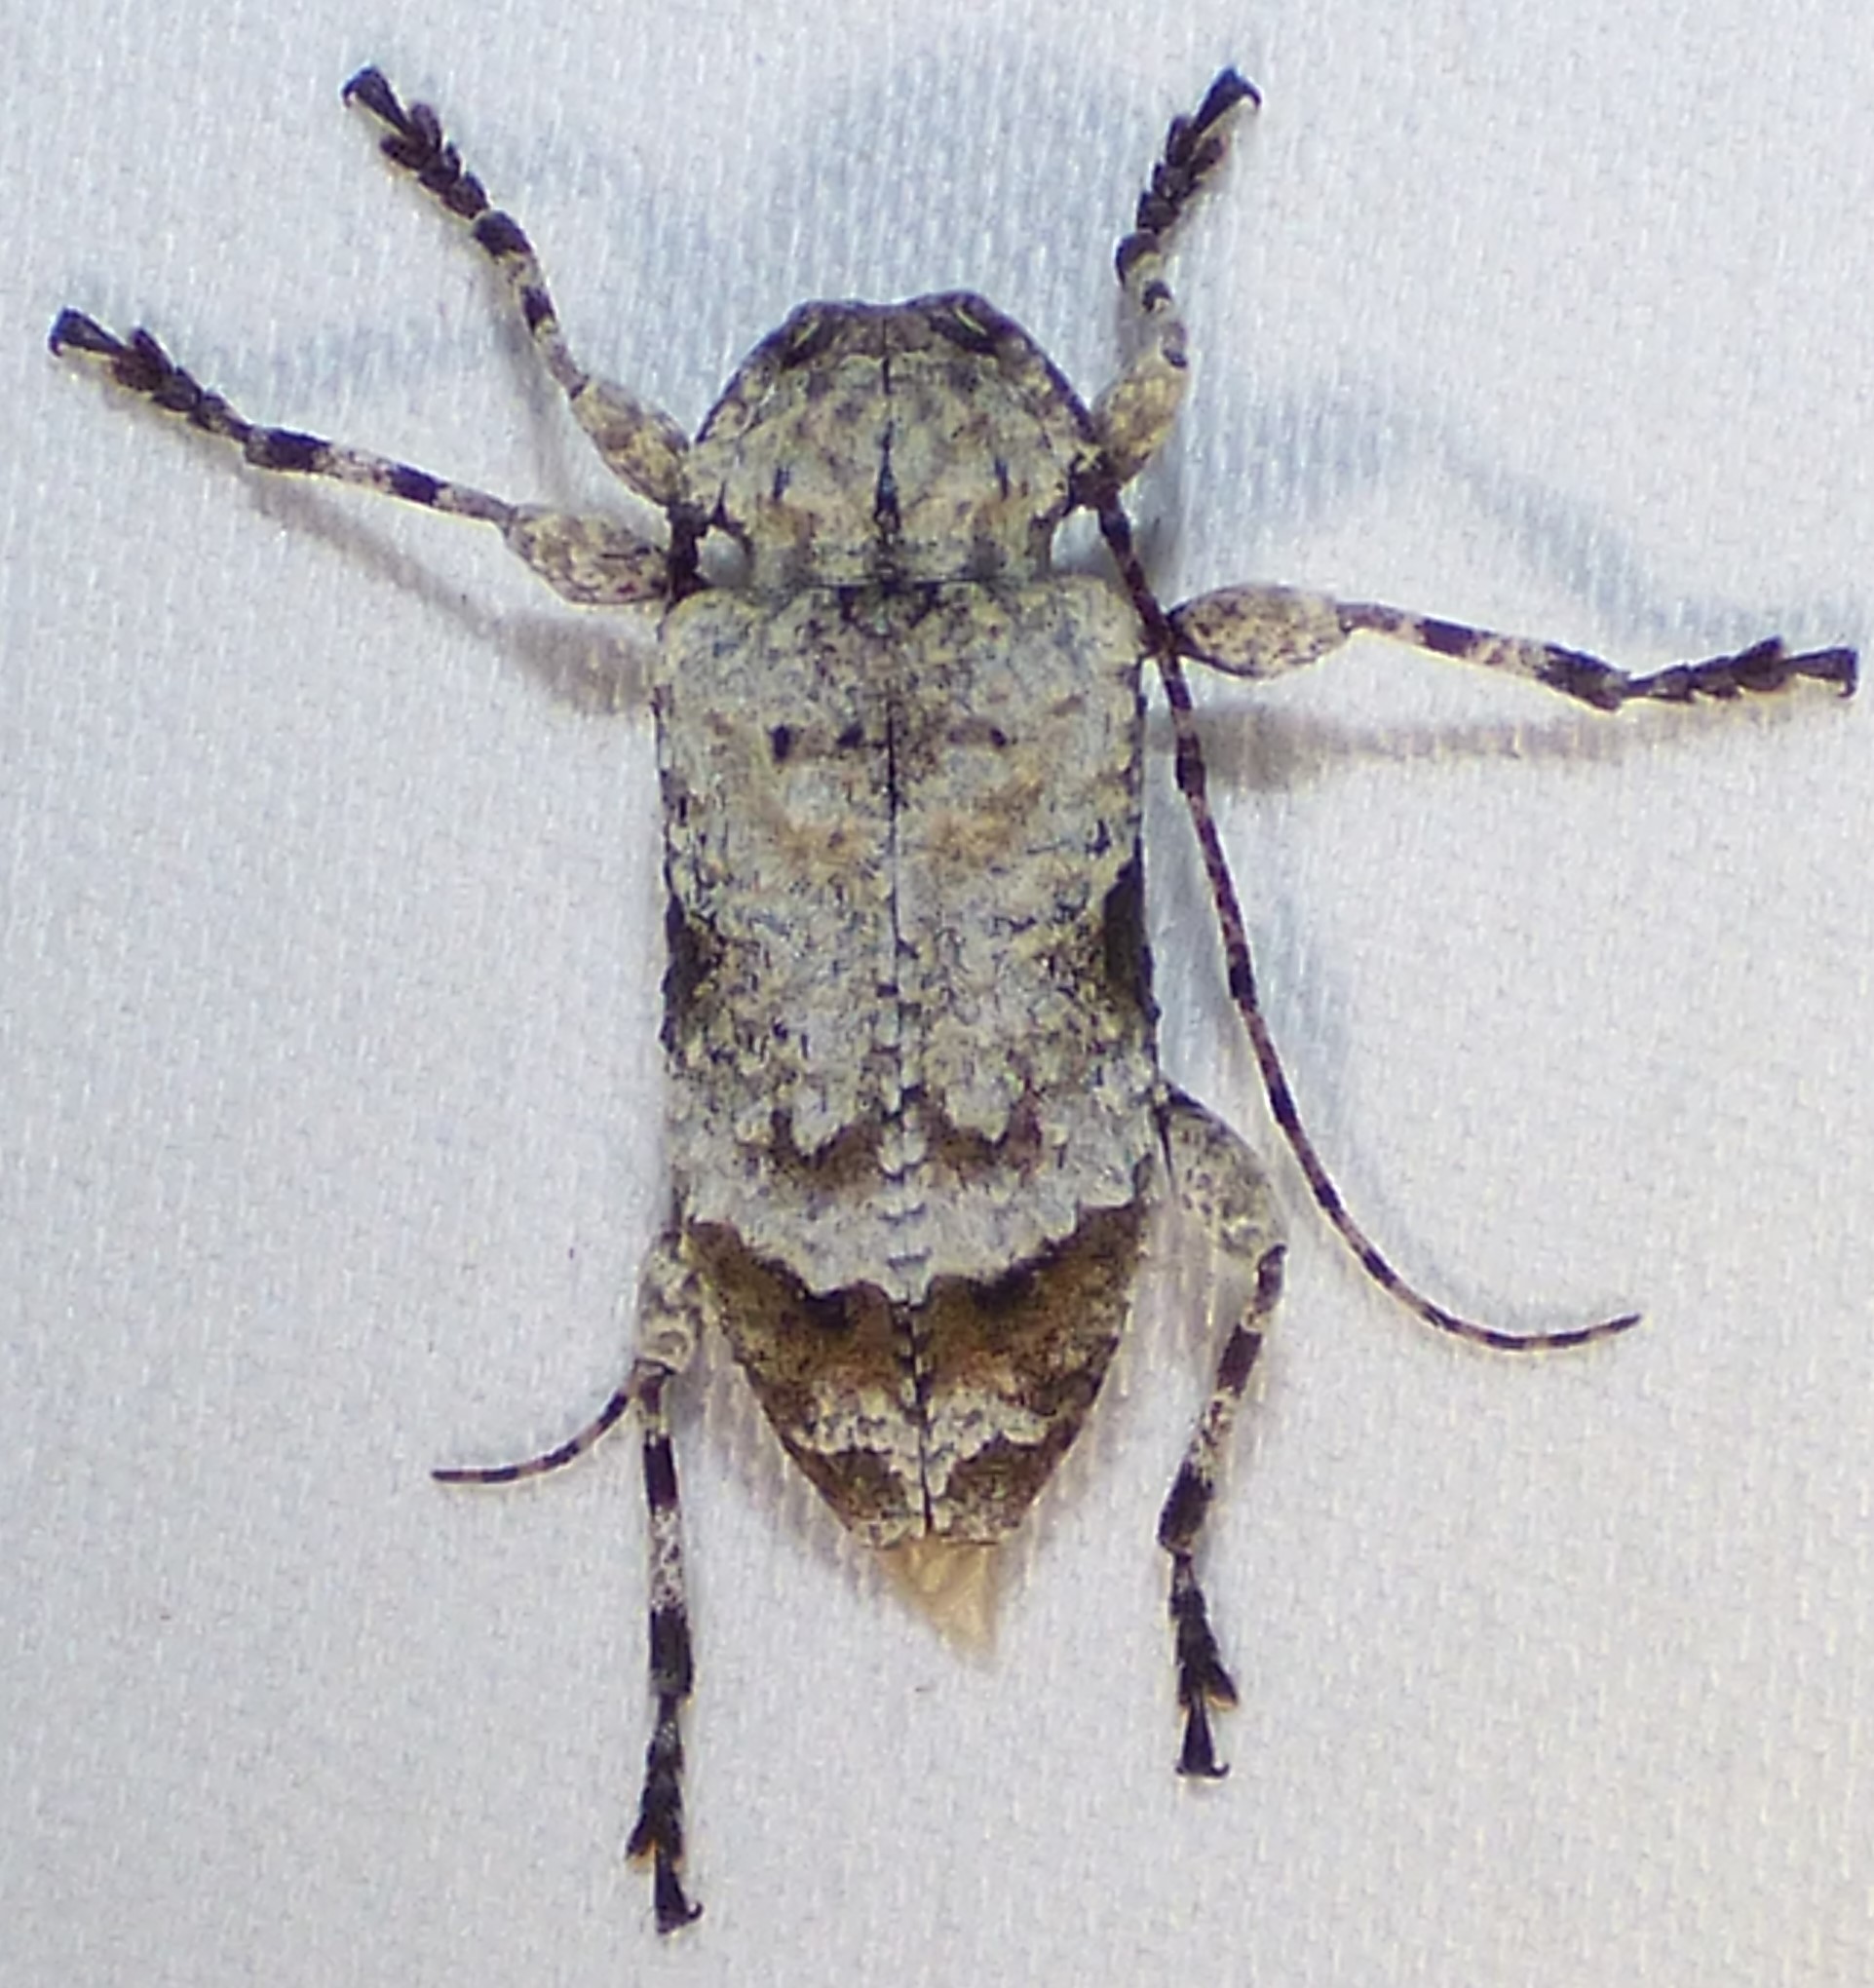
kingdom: Animalia
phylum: Arthropoda
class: Insecta
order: Coleoptera
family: Cerambycidae
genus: Leptostylus
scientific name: Leptostylus asperatus
